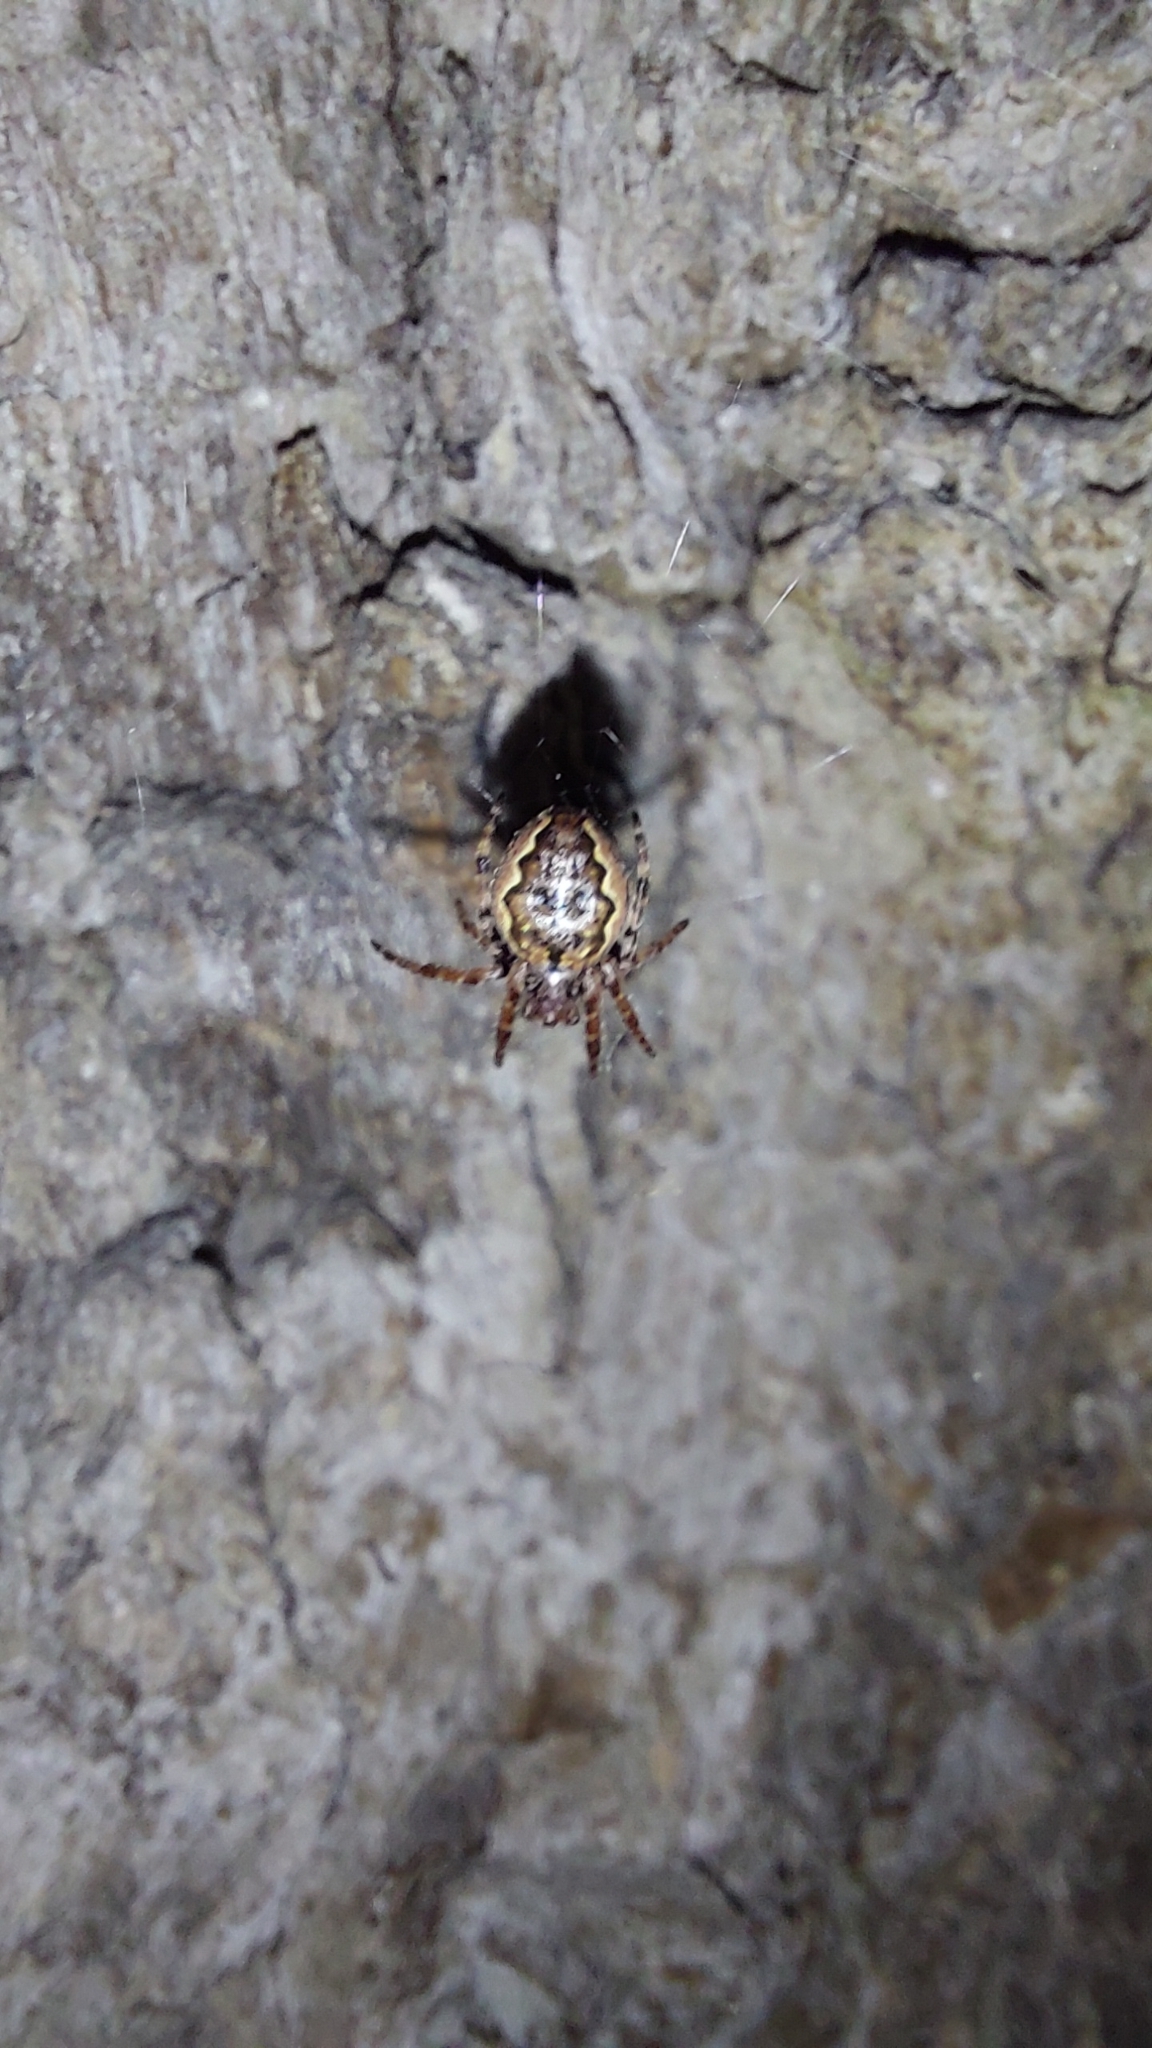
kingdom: Animalia
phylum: Arthropoda
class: Arachnida
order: Araneae
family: Araneidae
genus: Nuctenea
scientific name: Nuctenea umbratica
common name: Toad spider
